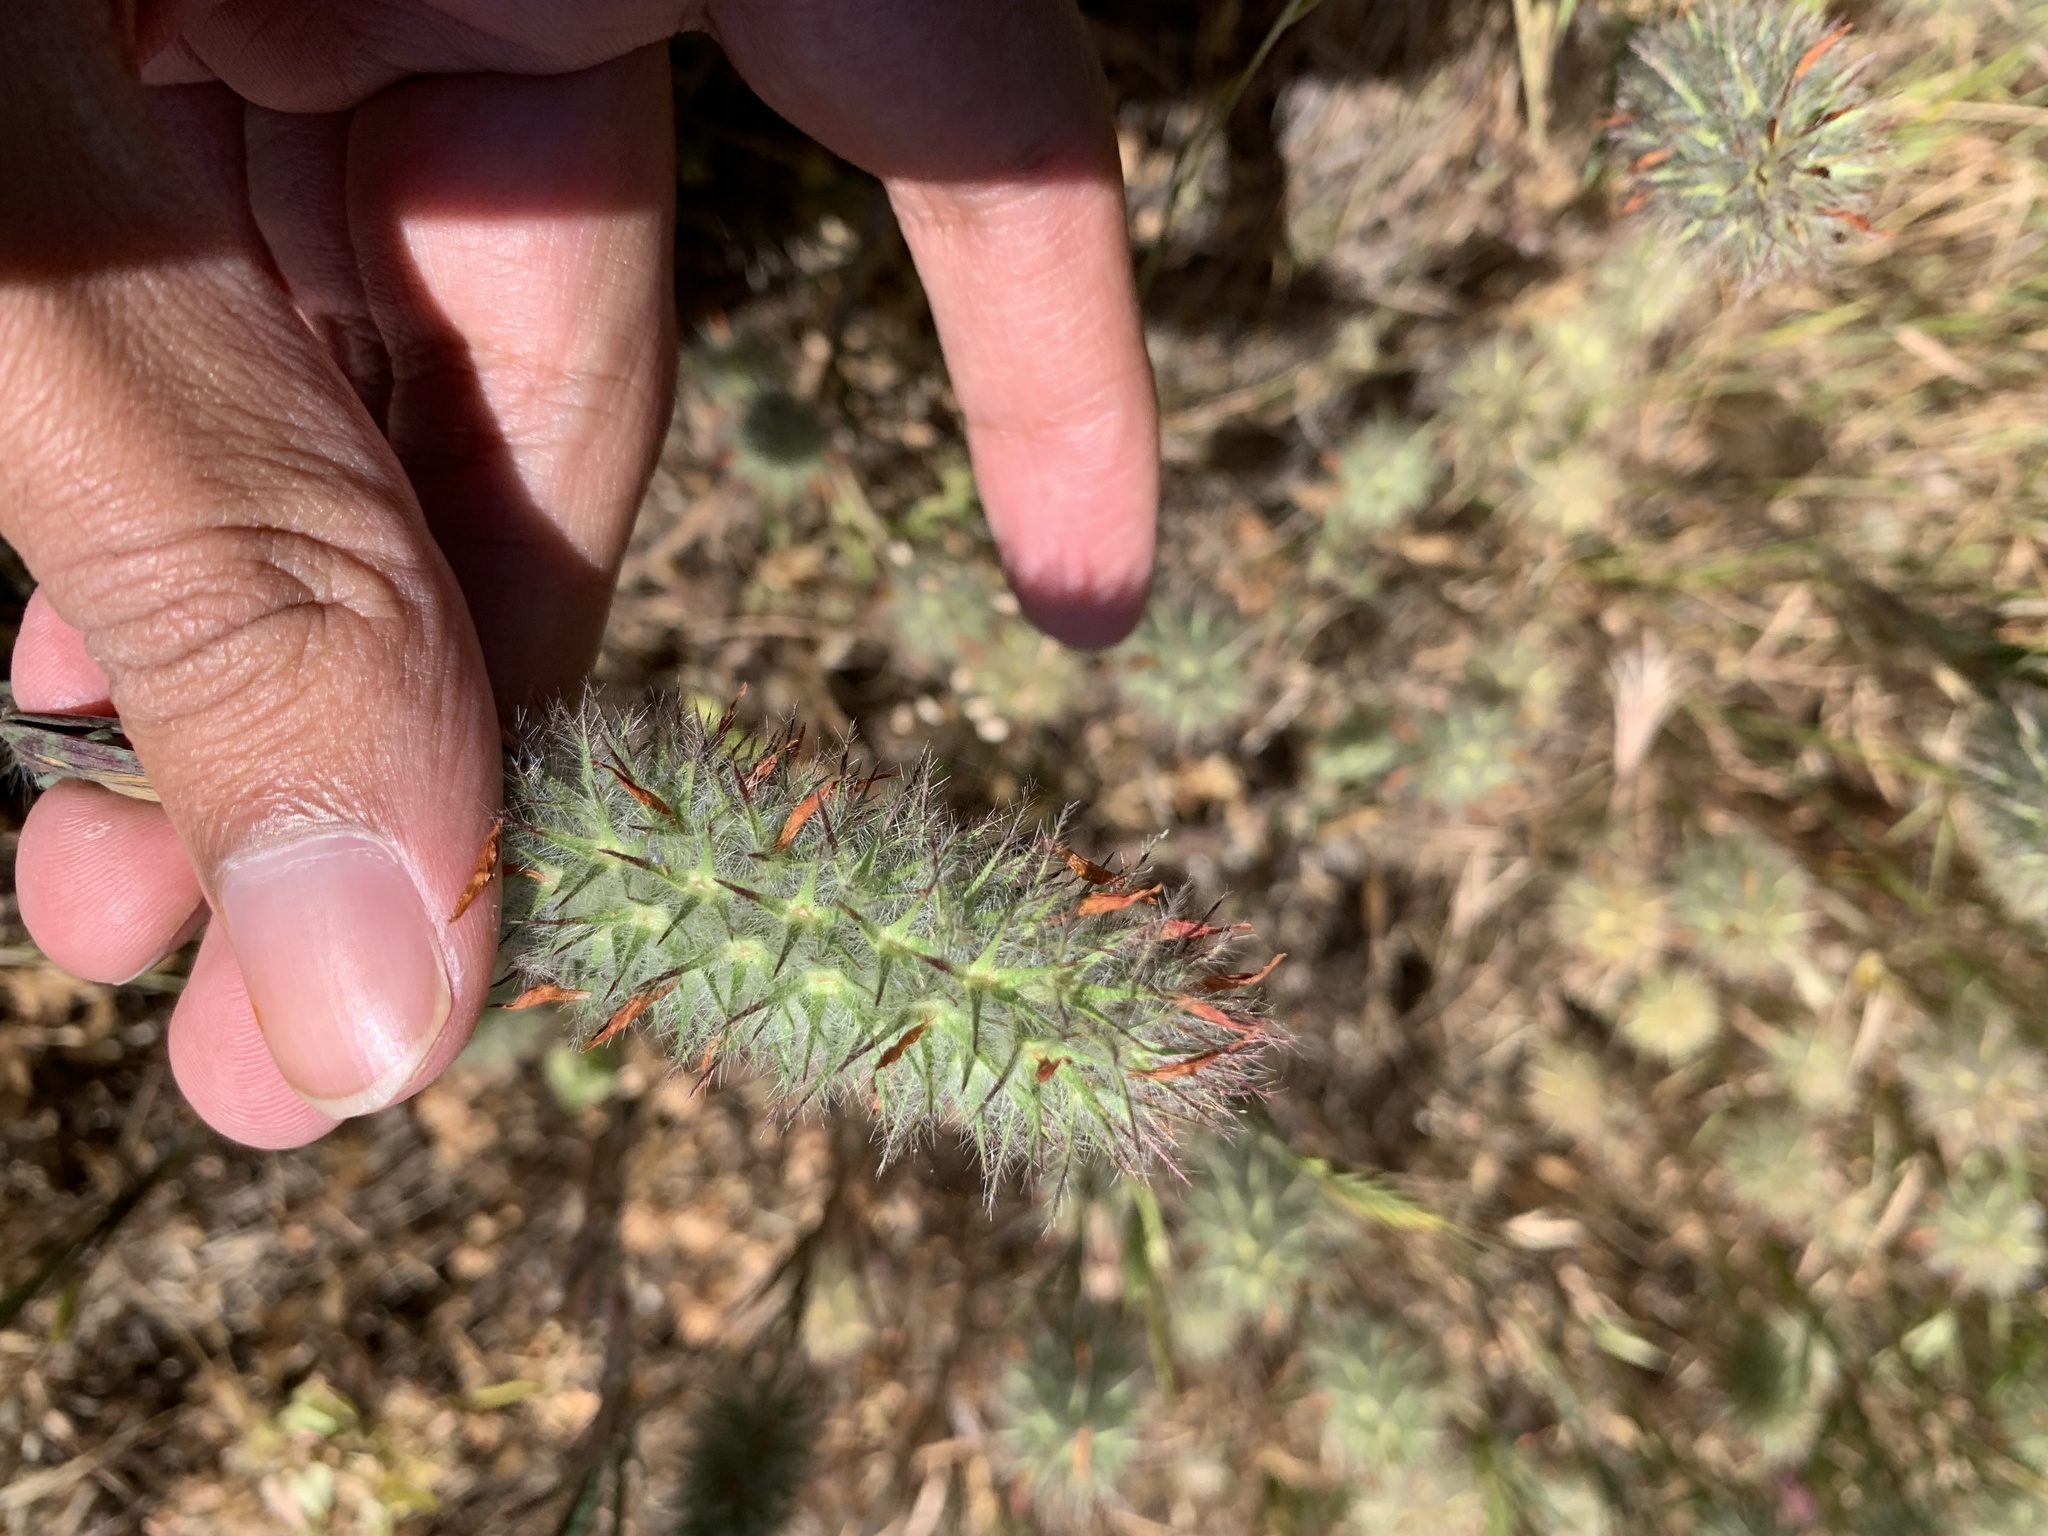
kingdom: Plantae
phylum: Tracheophyta
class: Magnoliopsida
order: Fabales
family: Fabaceae
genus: Trifolium
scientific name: Trifolium angustifolium
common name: Narrow clover
